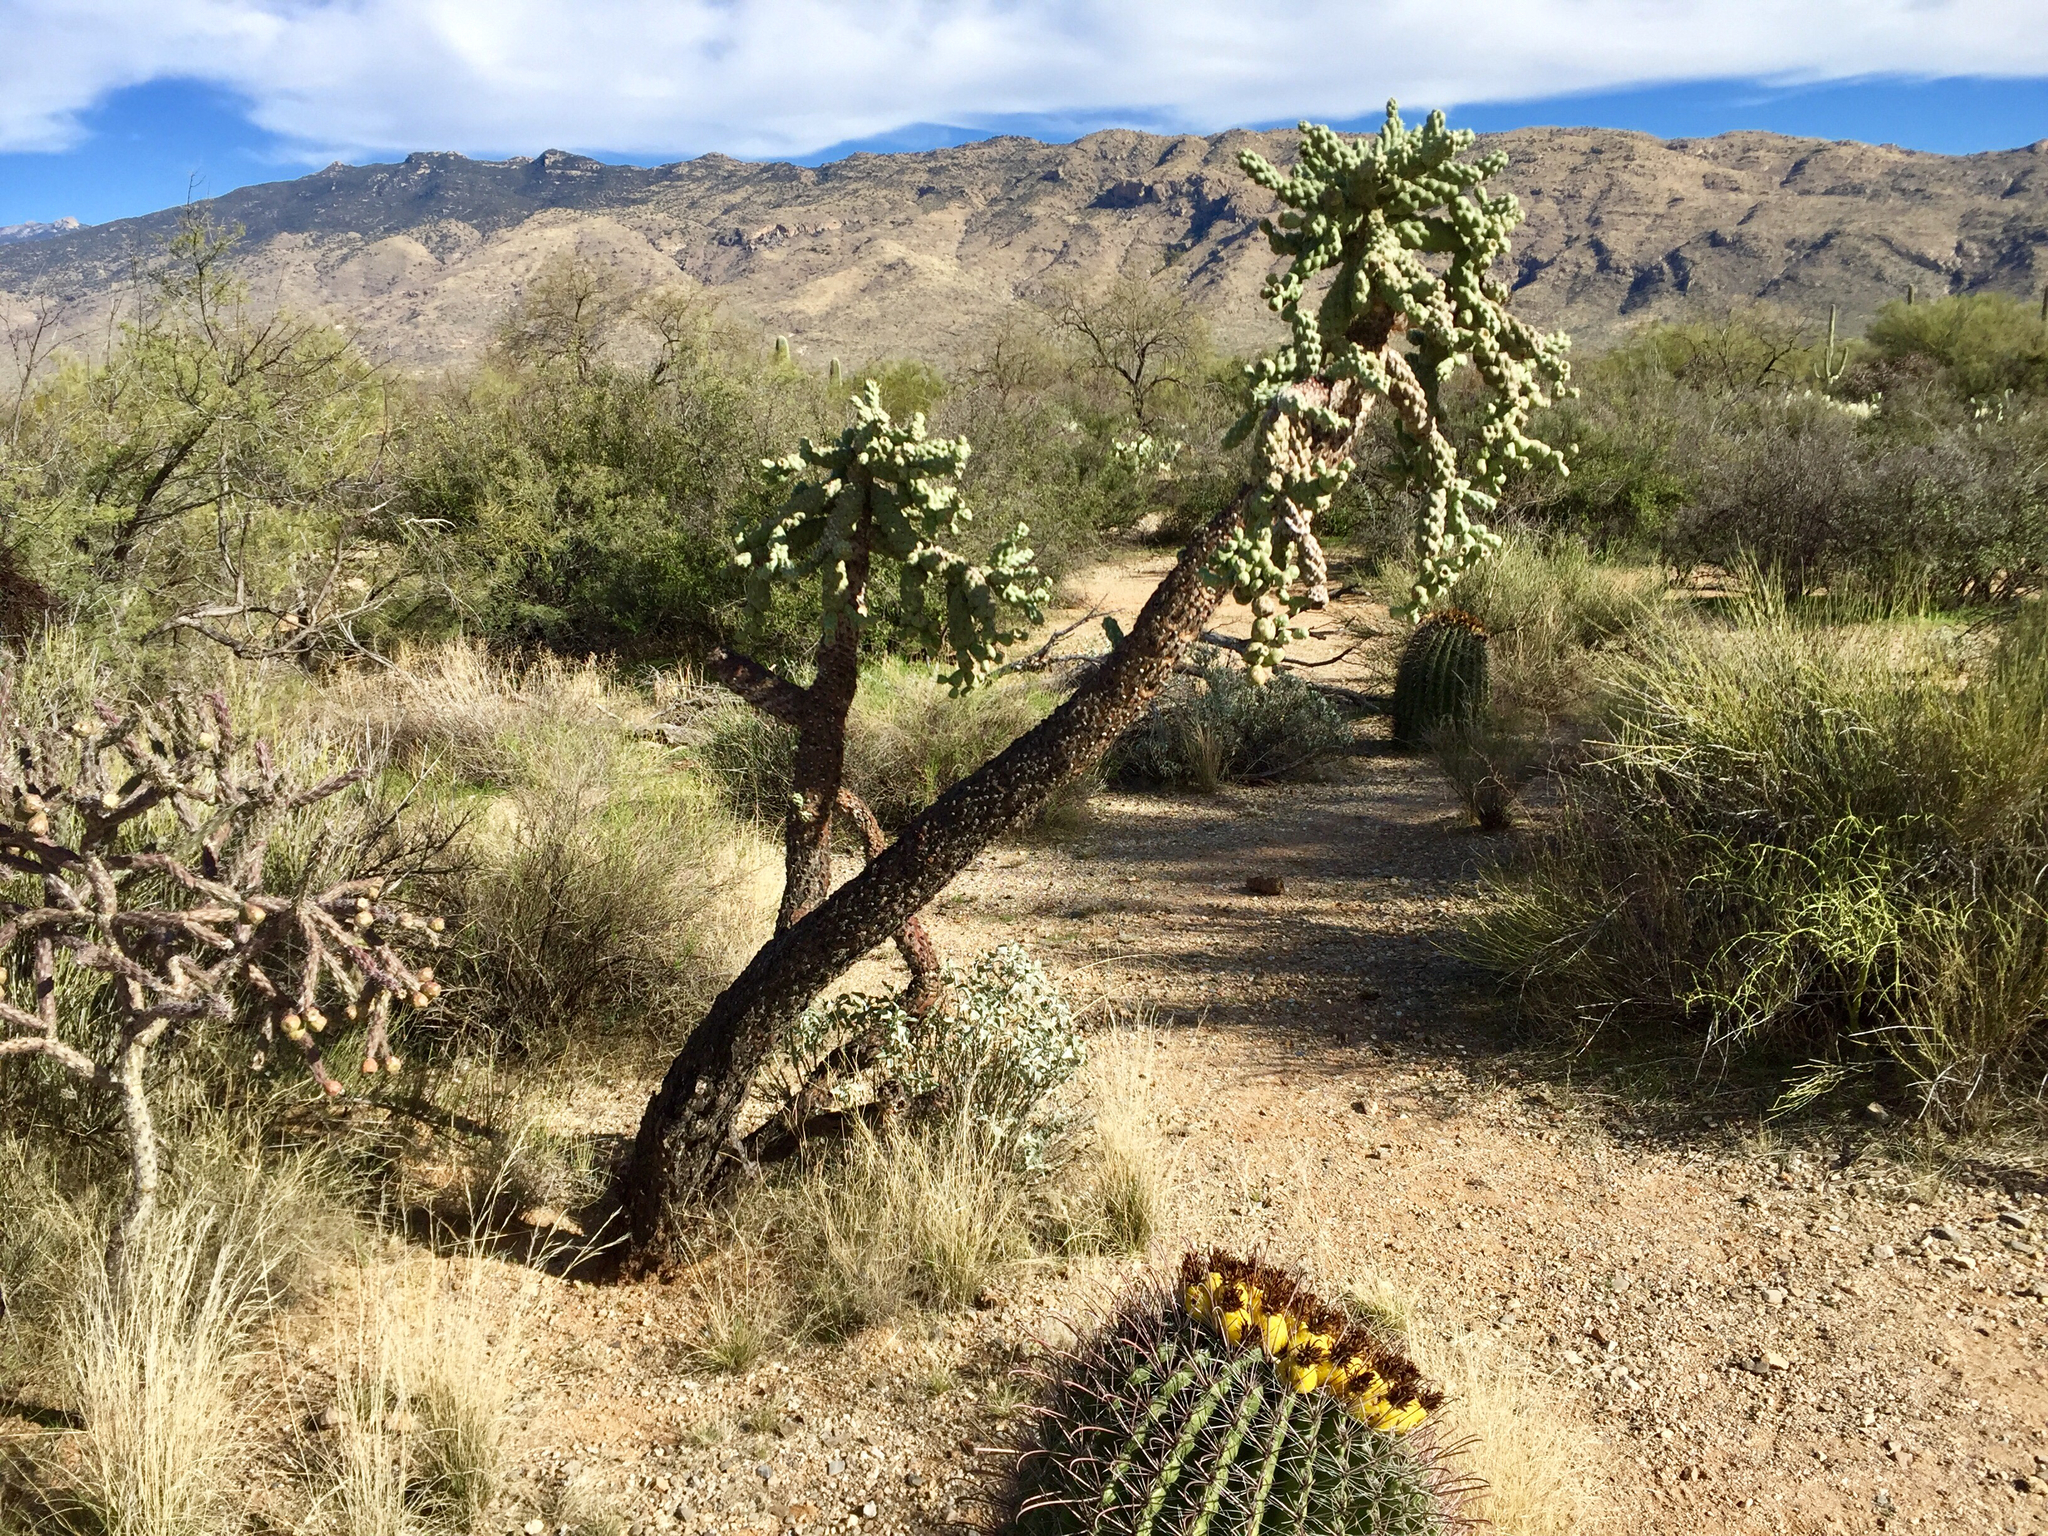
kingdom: Plantae
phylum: Tracheophyta
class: Magnoliopsida
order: Caryophyllales
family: Cactaceae
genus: Cylindropuntia
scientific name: Cylindropuntia fulgida
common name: Jumping cholla
